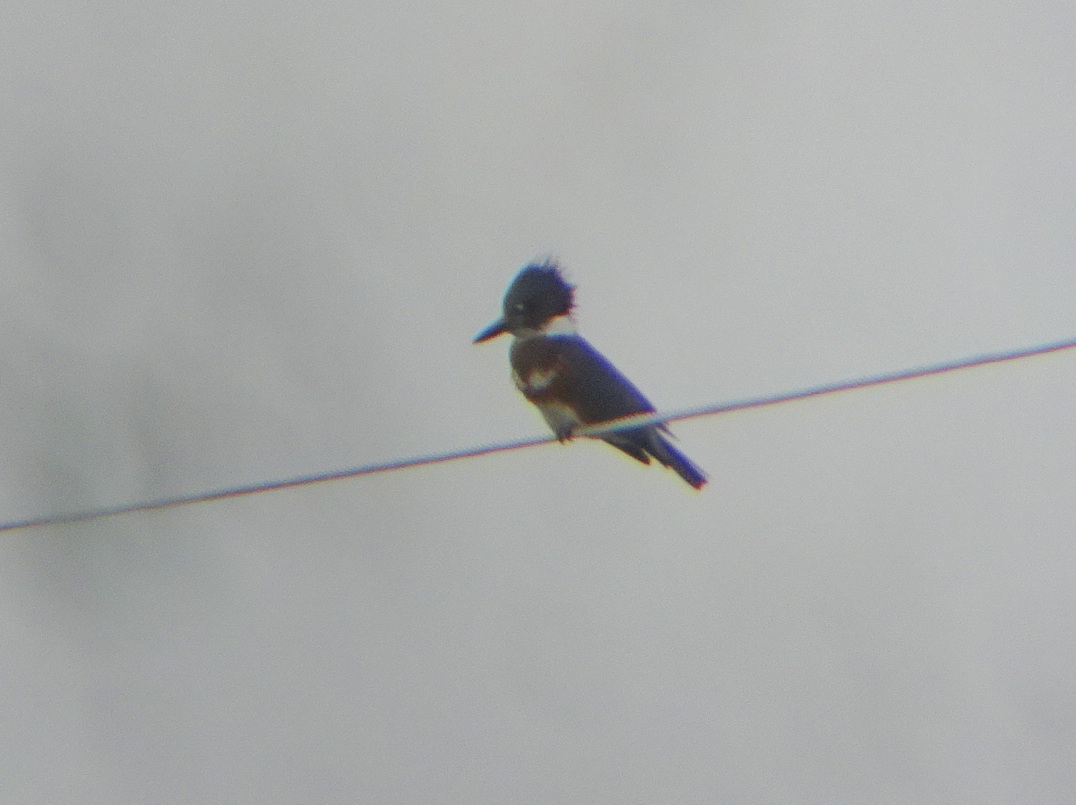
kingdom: Animalia
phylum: Chordata
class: Aves
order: Coraciiformes
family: Alcedinidae
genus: Megaceryle
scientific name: Megaceryle alcyon
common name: Belted kingfisher
